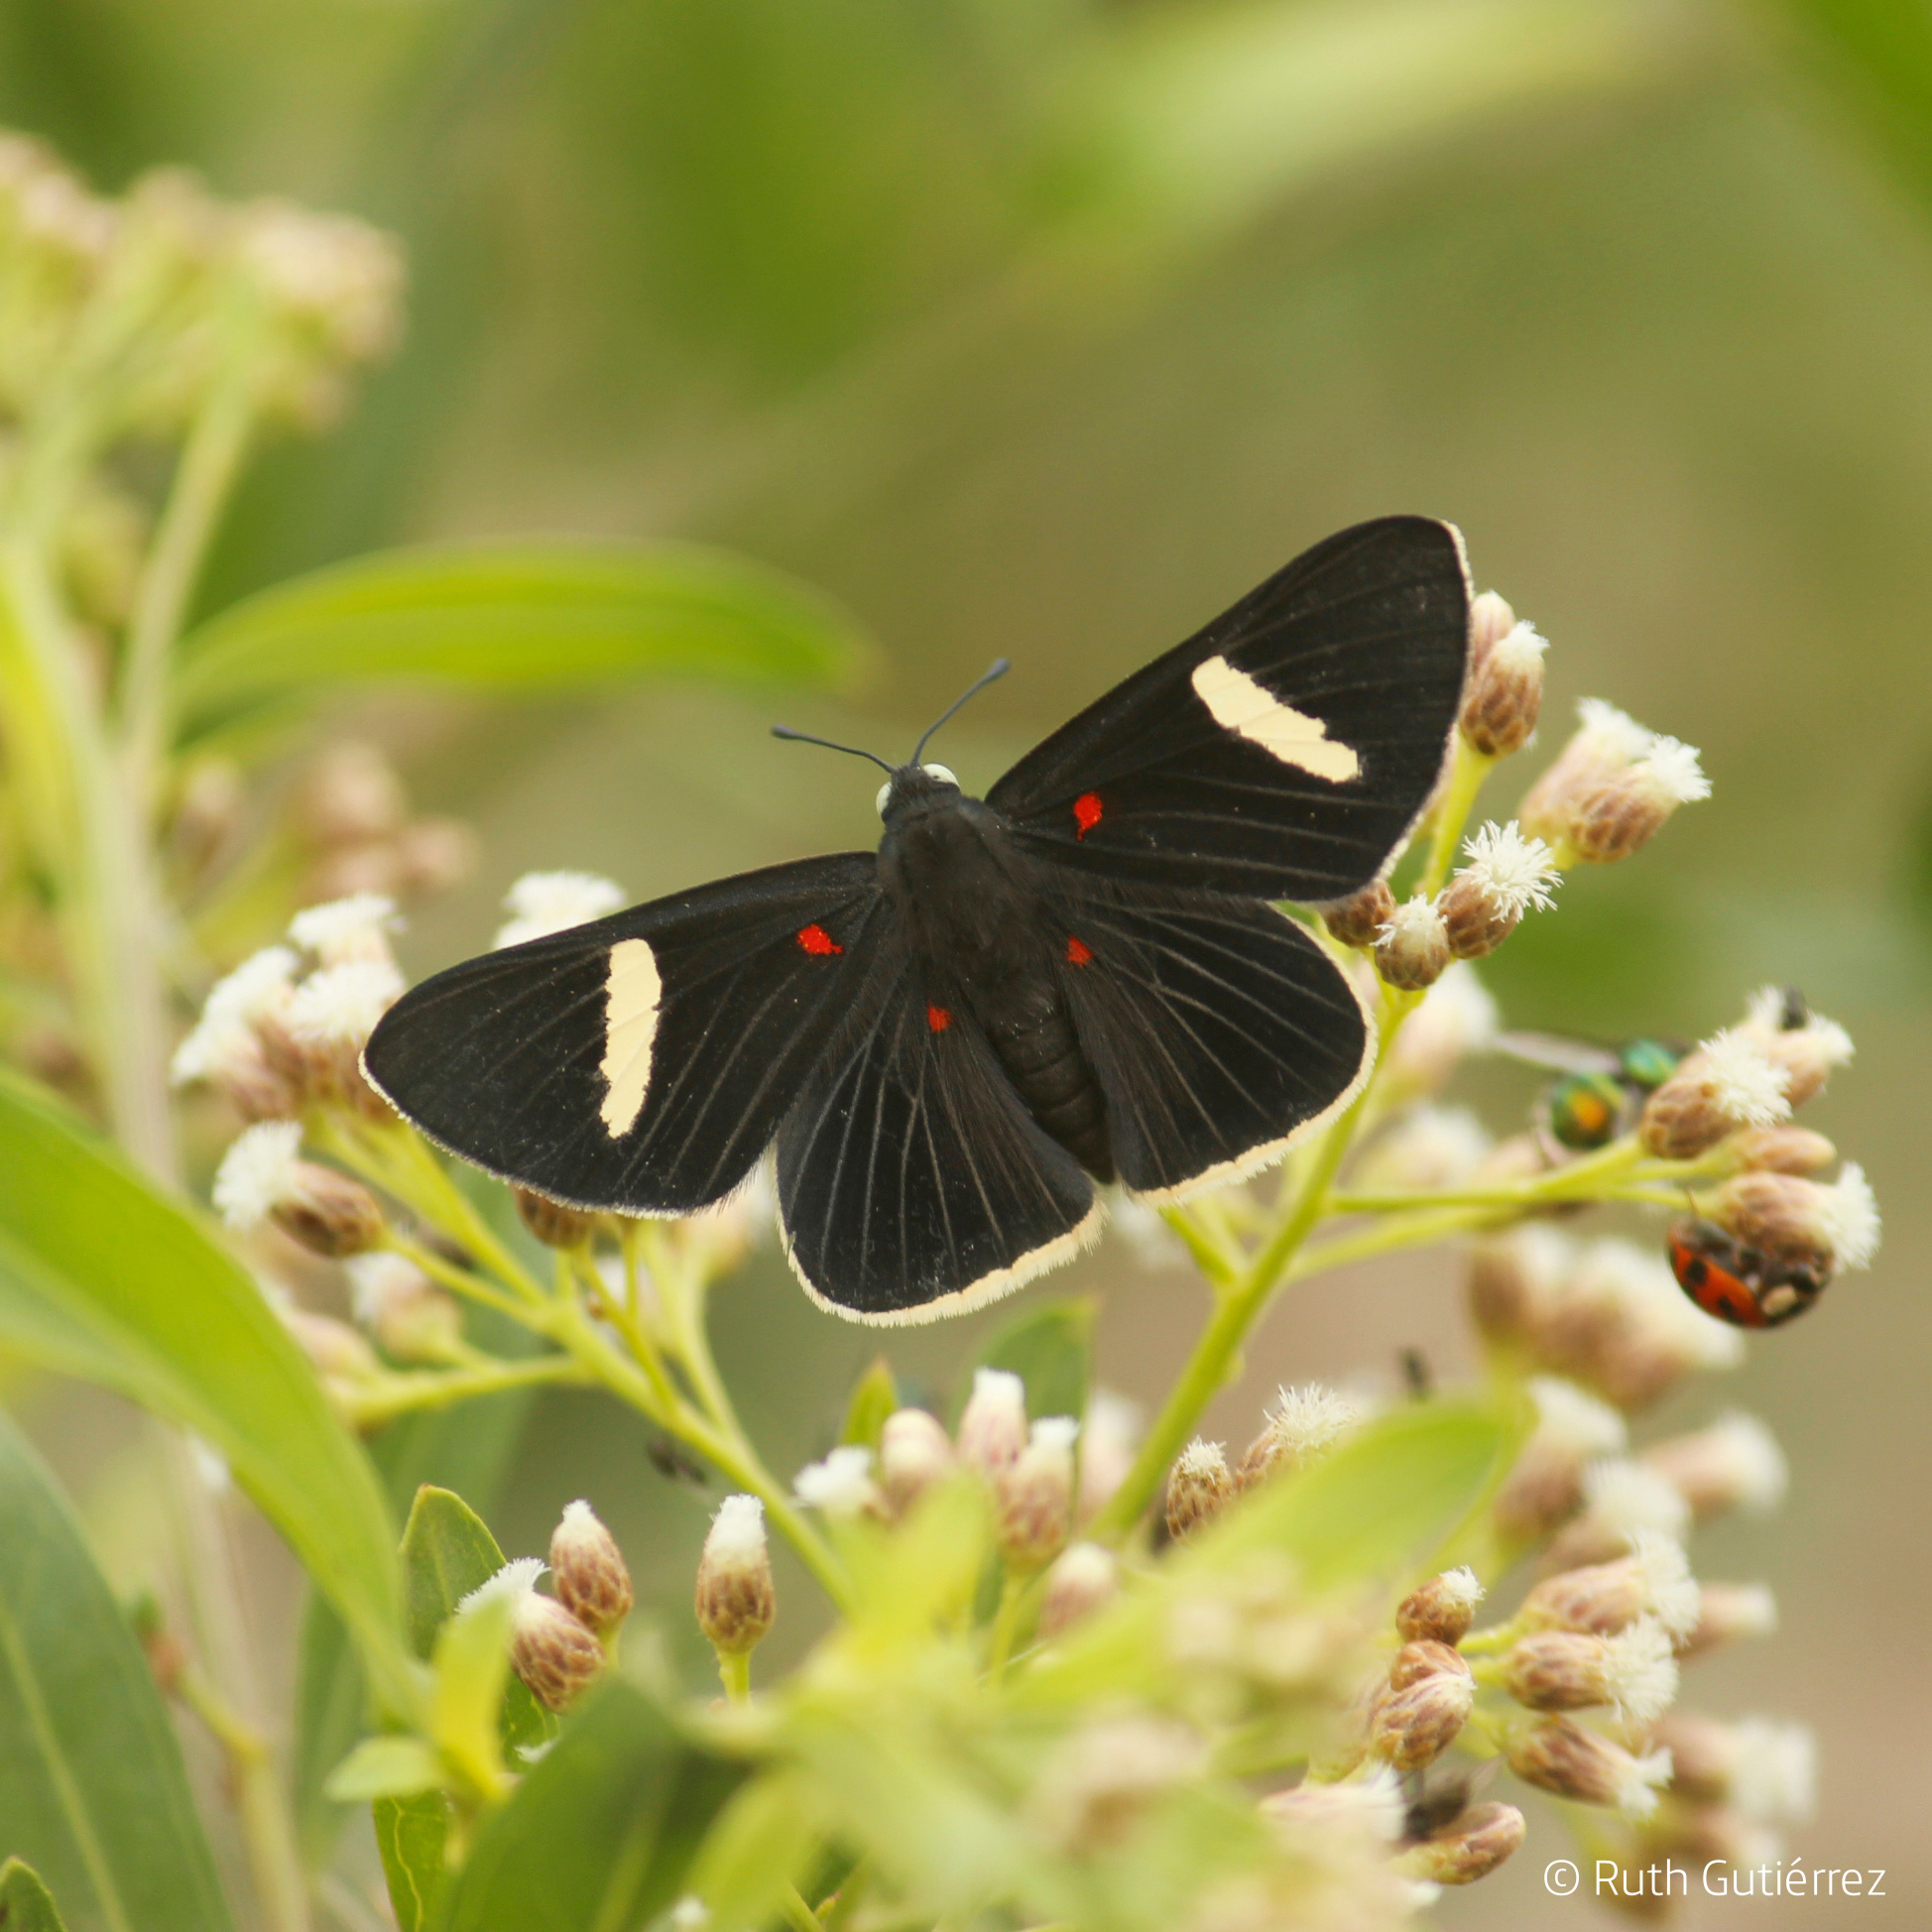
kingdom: Animalia
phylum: Arthropoda
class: Insecta
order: Lepidoptera
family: Lycaenidae
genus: Melanis
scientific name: Melanis
